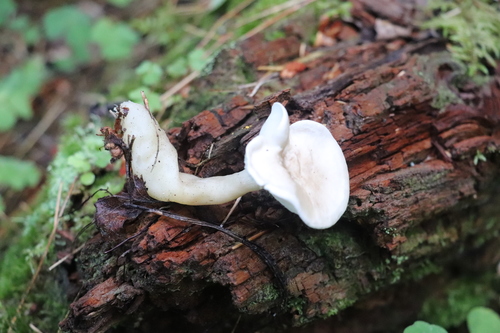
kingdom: Fungi
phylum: Basidiomycota
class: Agaricomycetes
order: Agaricales
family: Hygrophoraceae
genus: Ampulloclitocybe
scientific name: Ampulloclitocybe clavipes
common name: Club foot
